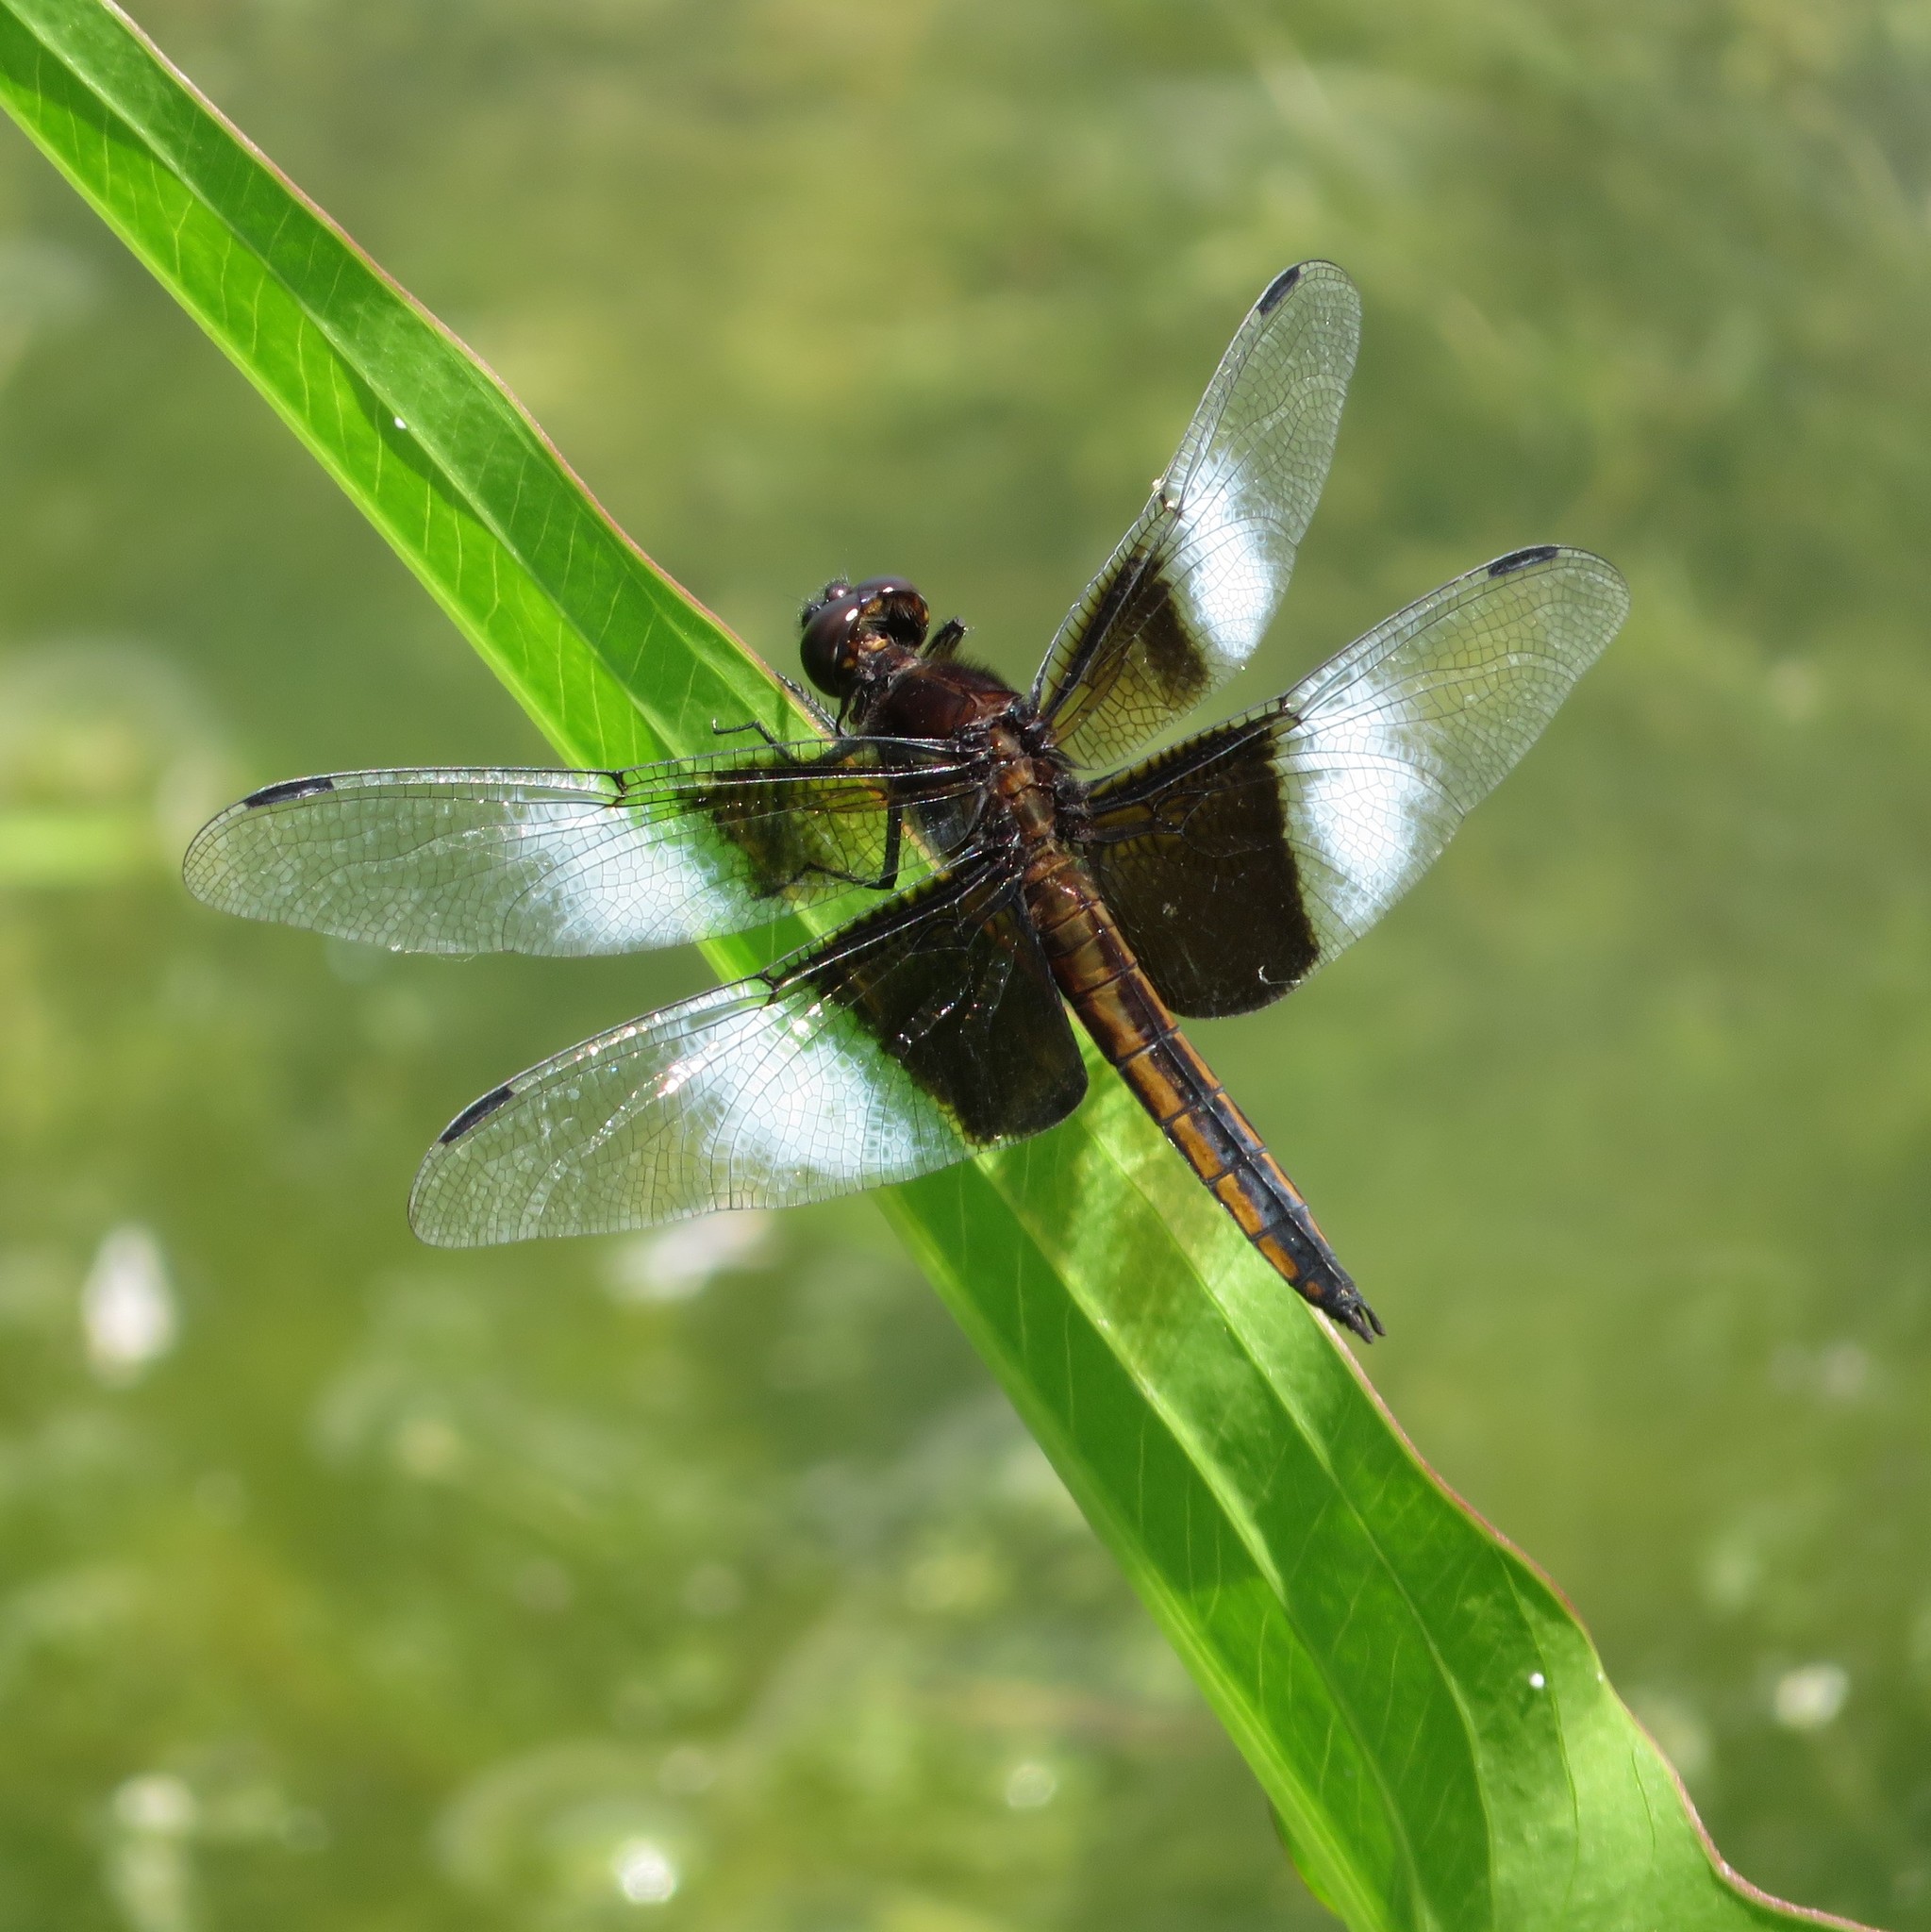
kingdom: Animalia
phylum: Arthropoda
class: Insecta
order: Odonata
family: Libellulidae
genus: Libellula
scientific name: Libellula luctuosa
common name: Widow skimmer
